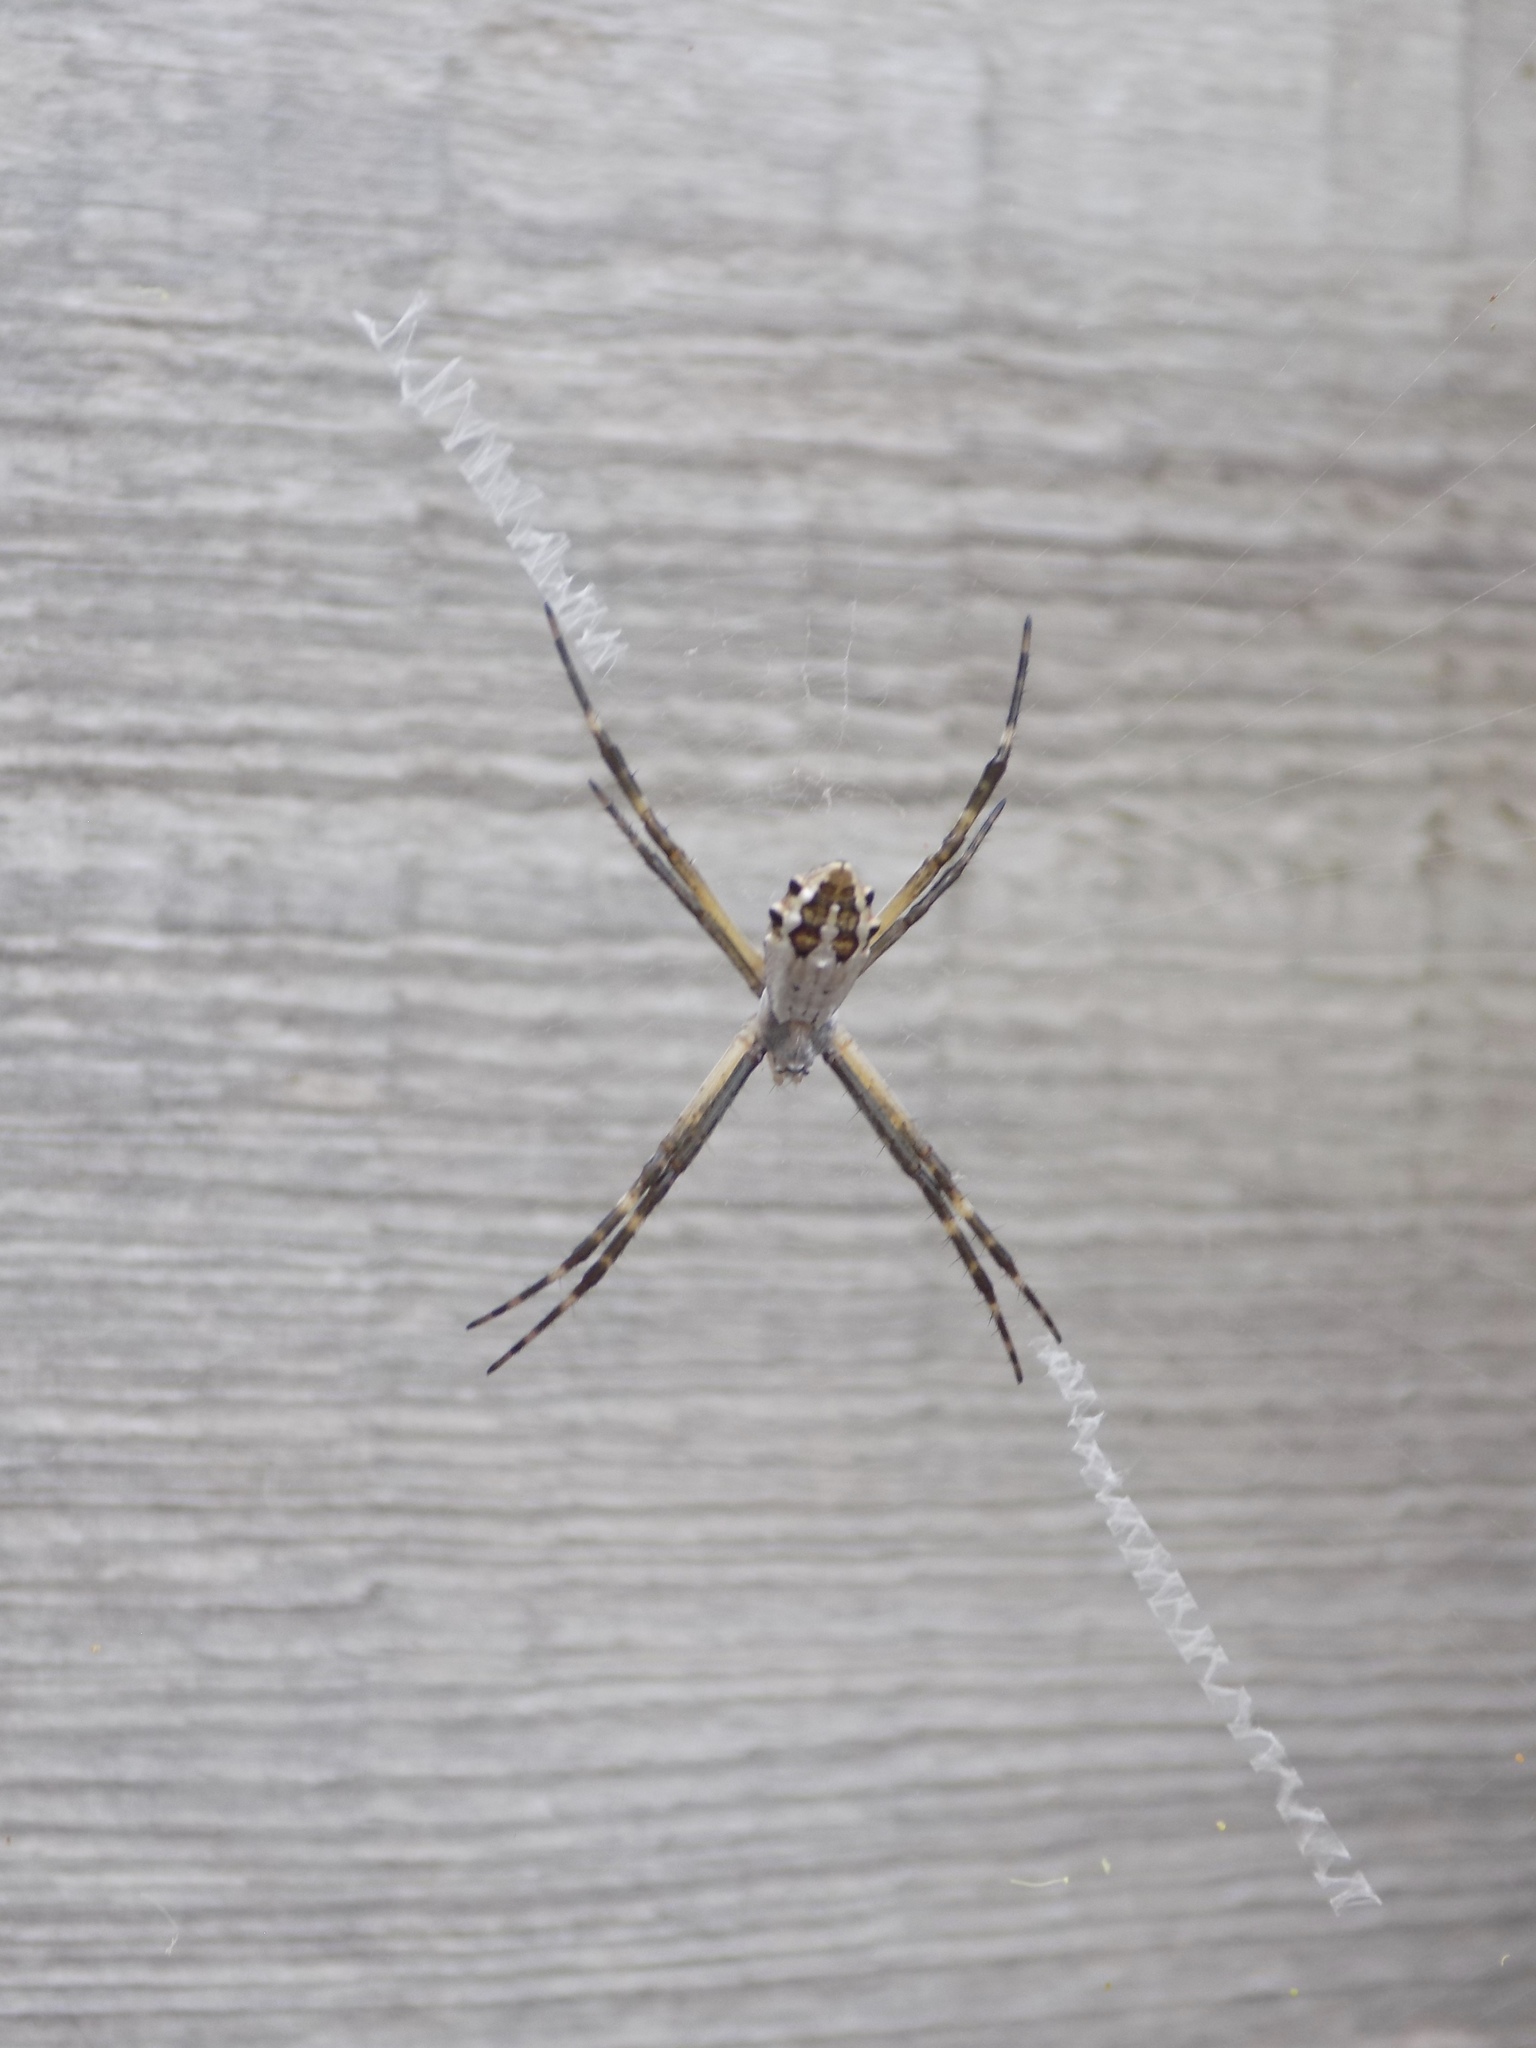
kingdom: Animalia
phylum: Arthropoda
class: Arachnida
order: Araneae
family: Araneidae
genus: Argiope
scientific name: Argiope argentata
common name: Orb weavers
